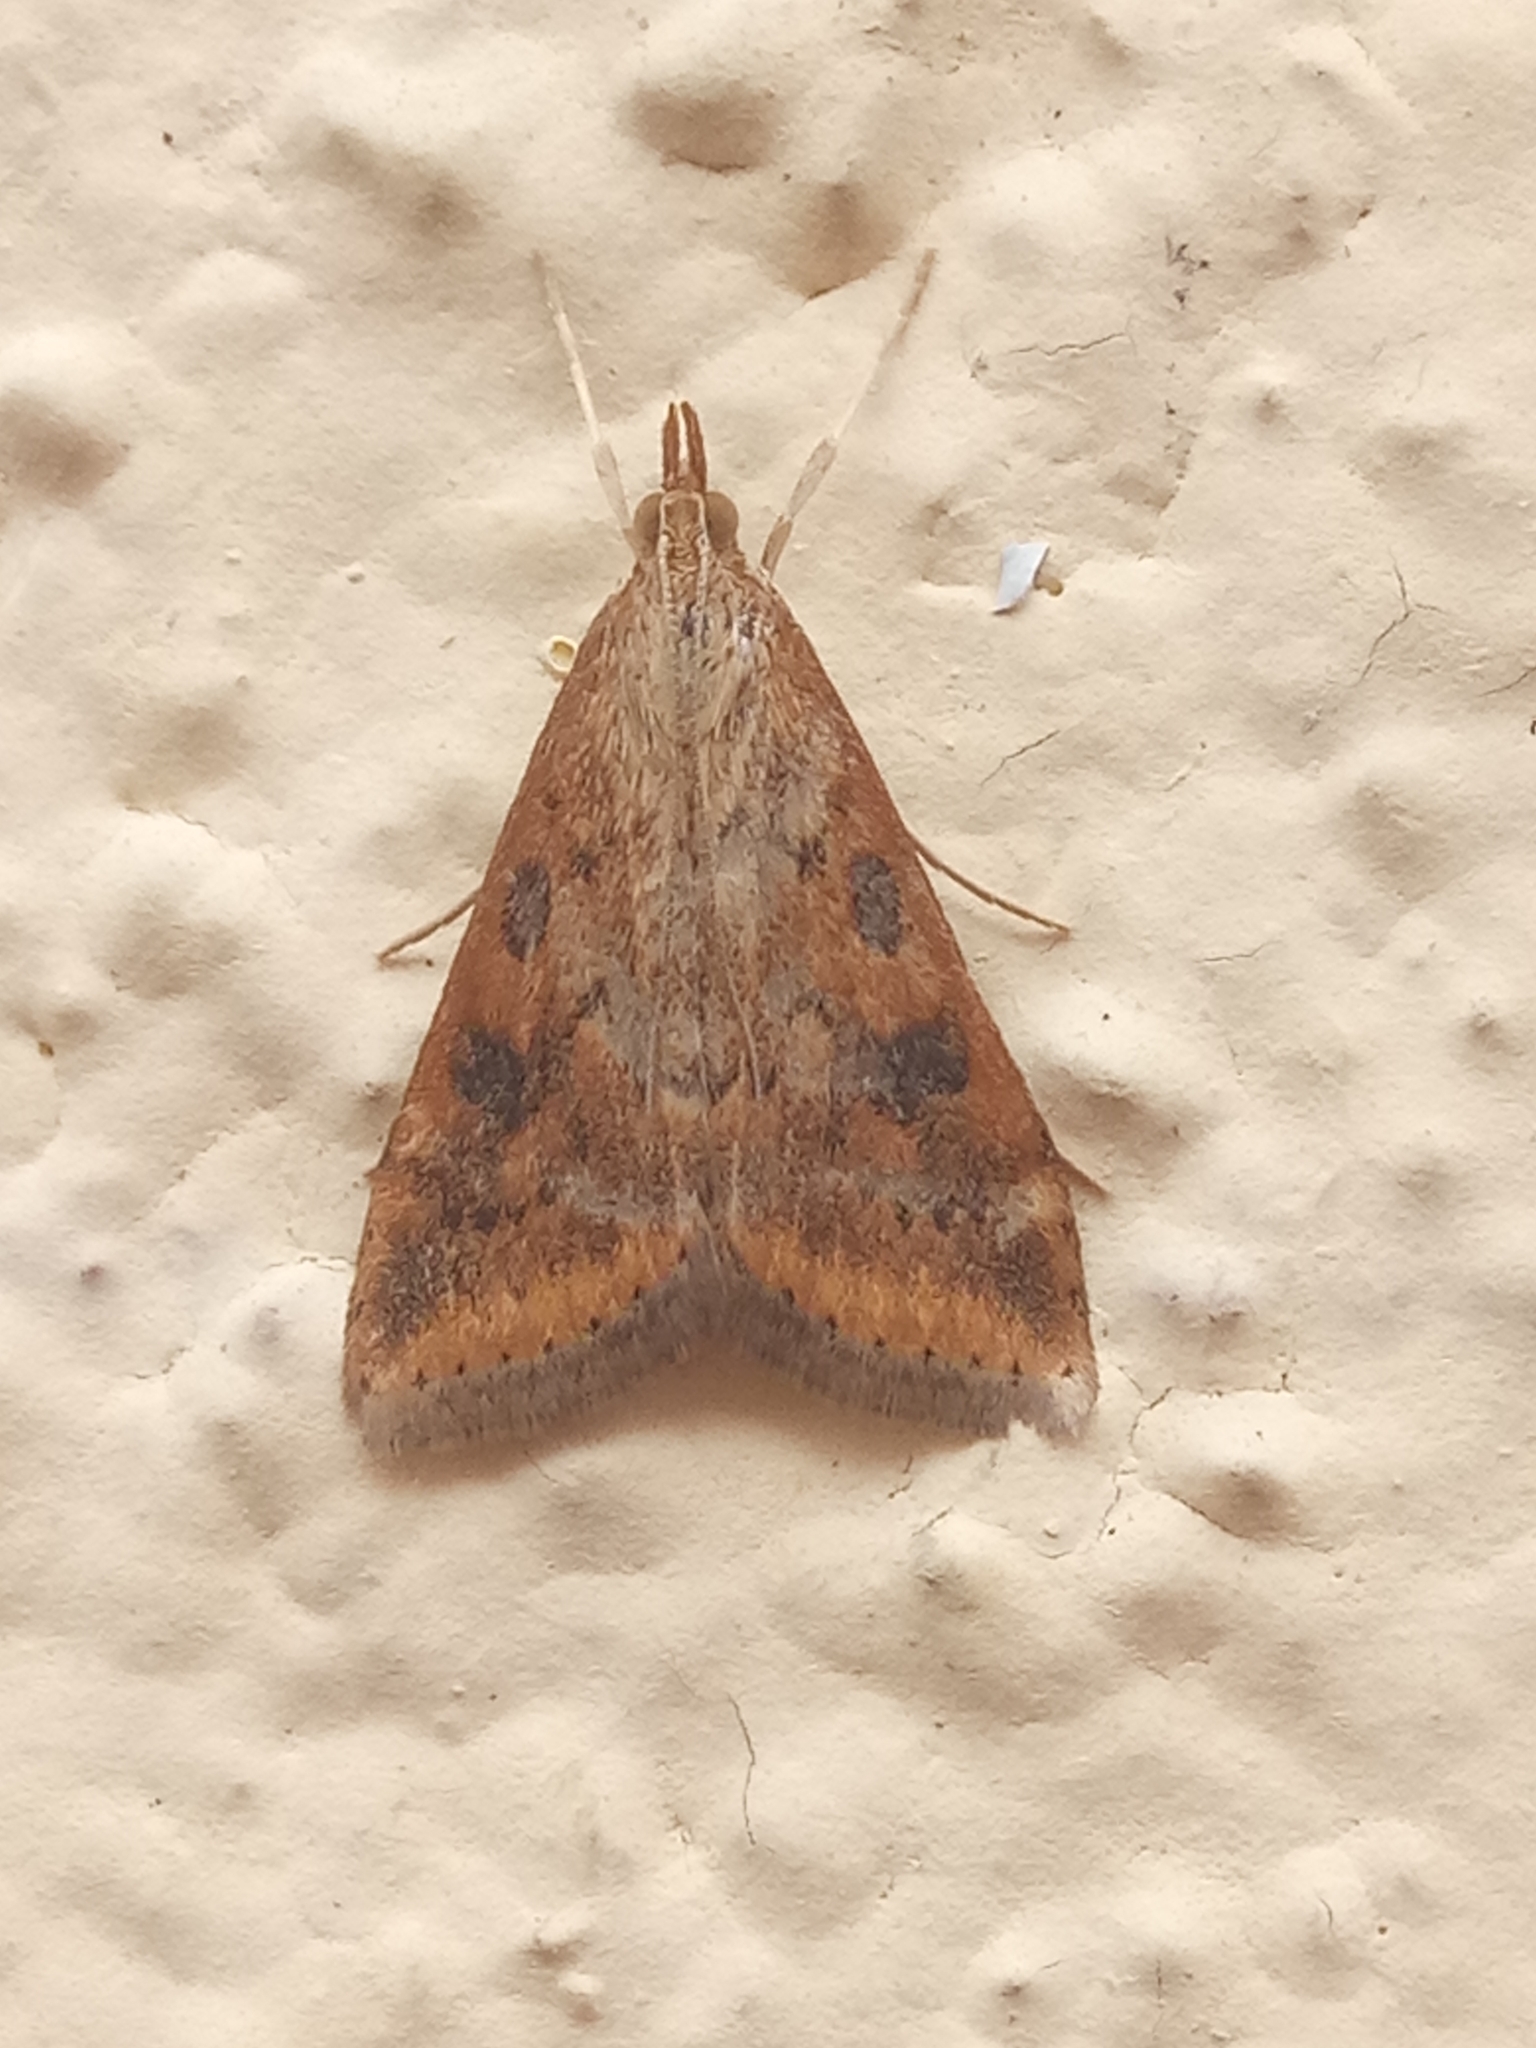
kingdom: Animalia
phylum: Arthropoda
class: Insecta
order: Lepidoptera
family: Crambidae
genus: Udea
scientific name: Udea ferrugalis
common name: Rusty dot
